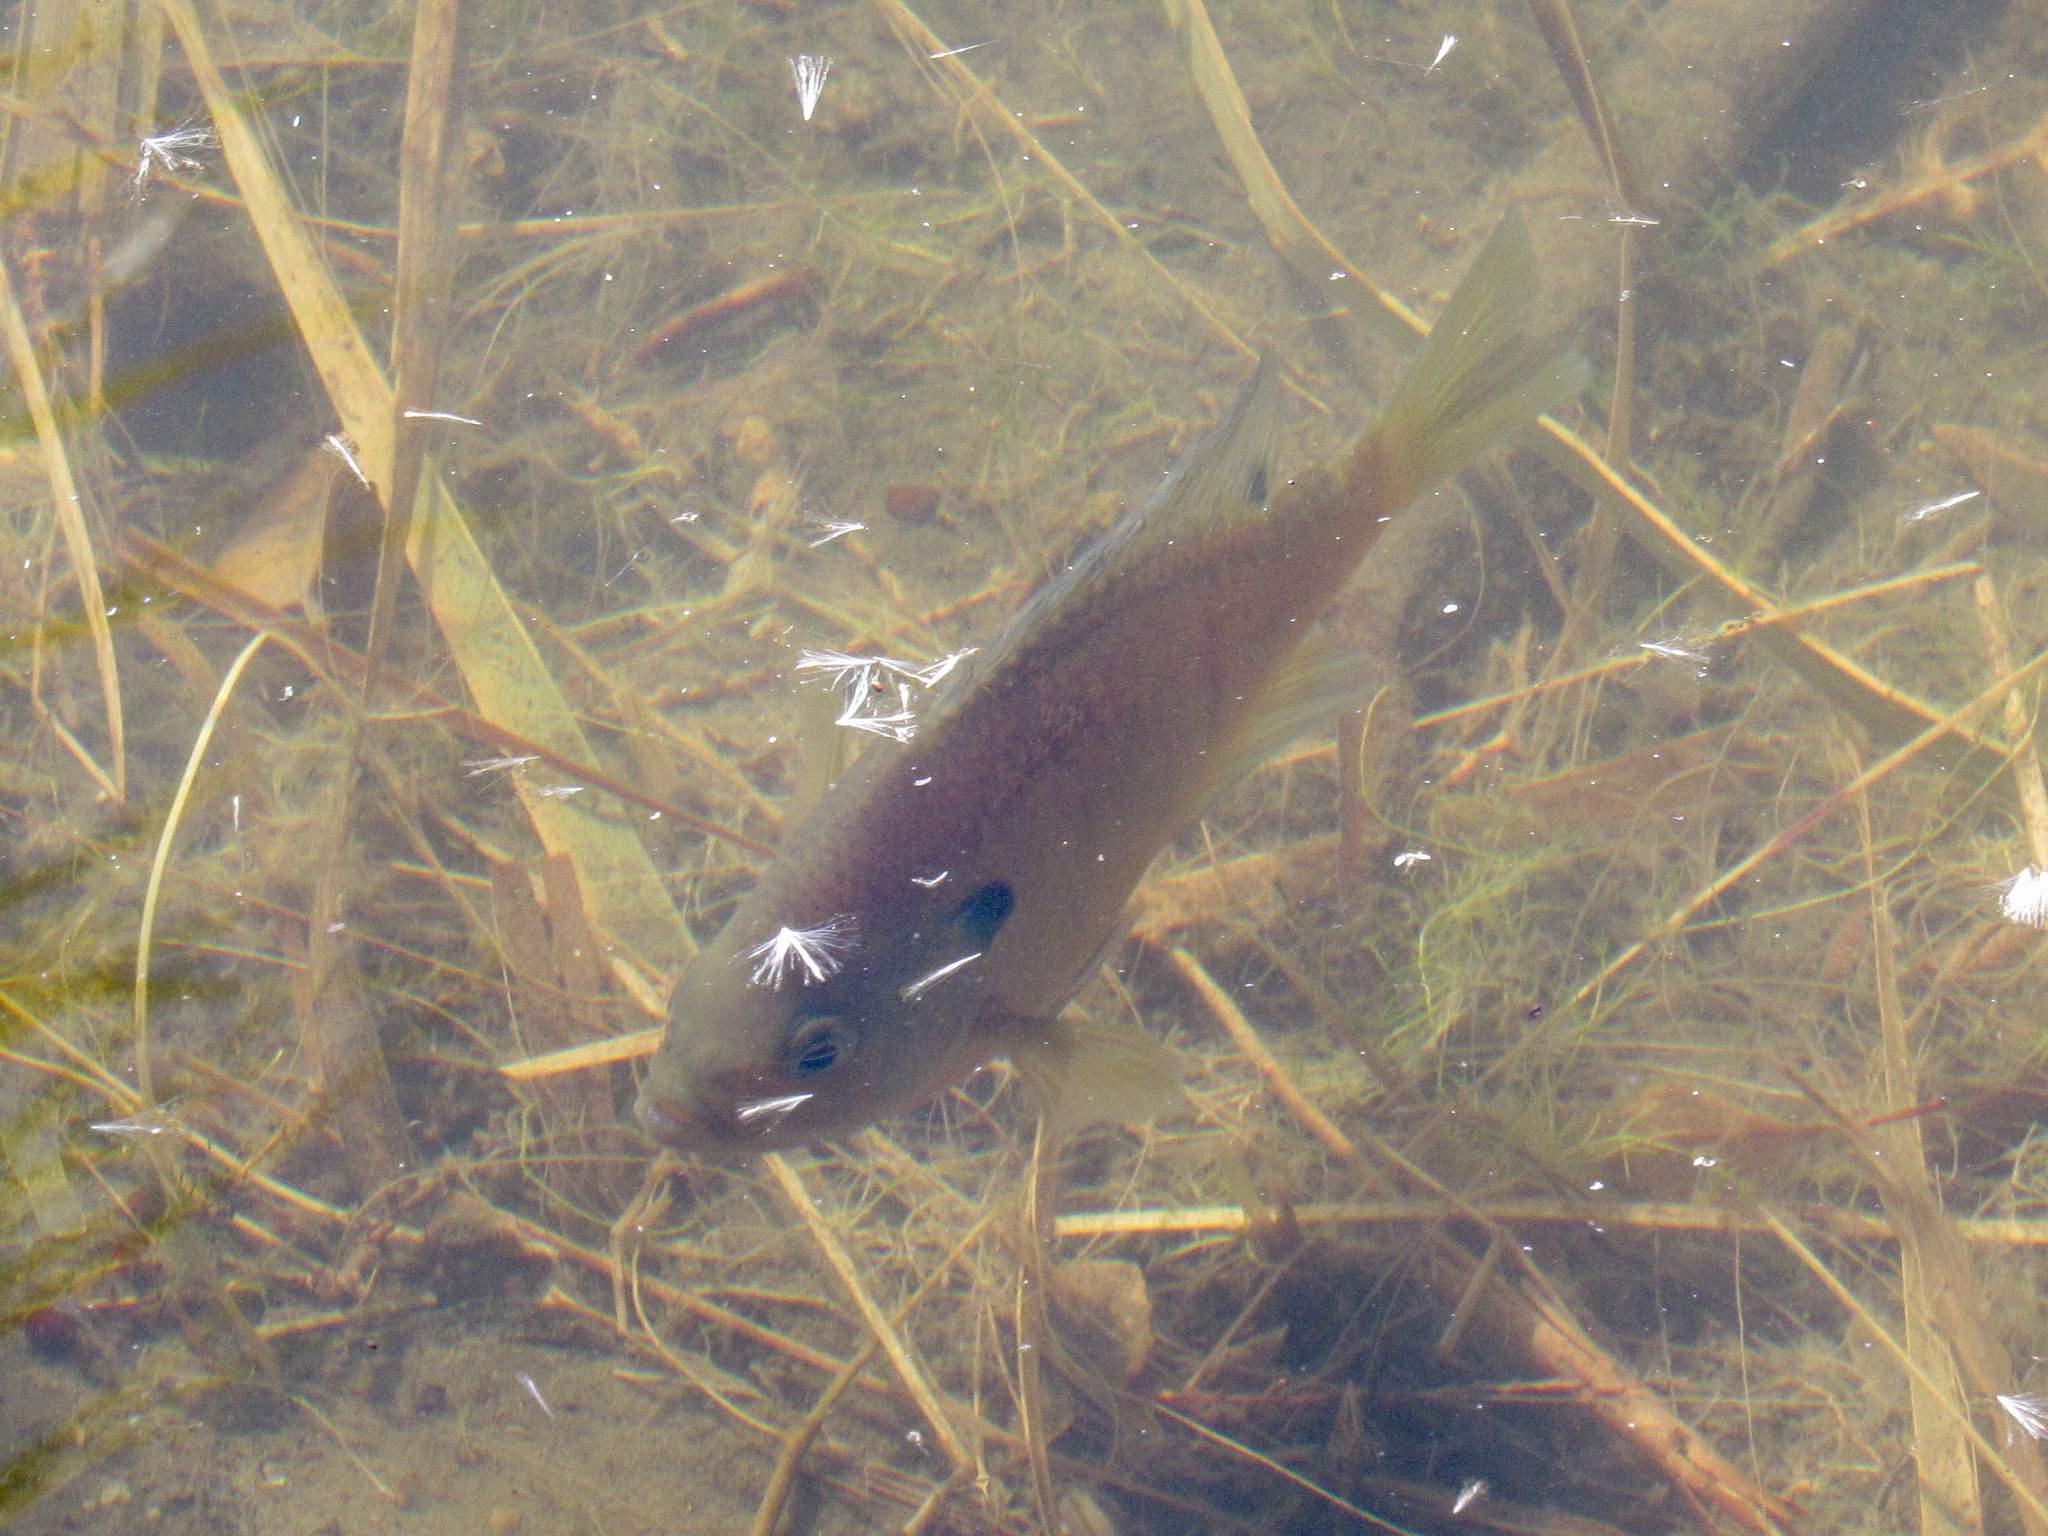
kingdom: Animalia
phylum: Chordata
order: Perciformes
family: Centrarchidae
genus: Lepomis
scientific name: Lepomis macrochirus
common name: Bluegill
